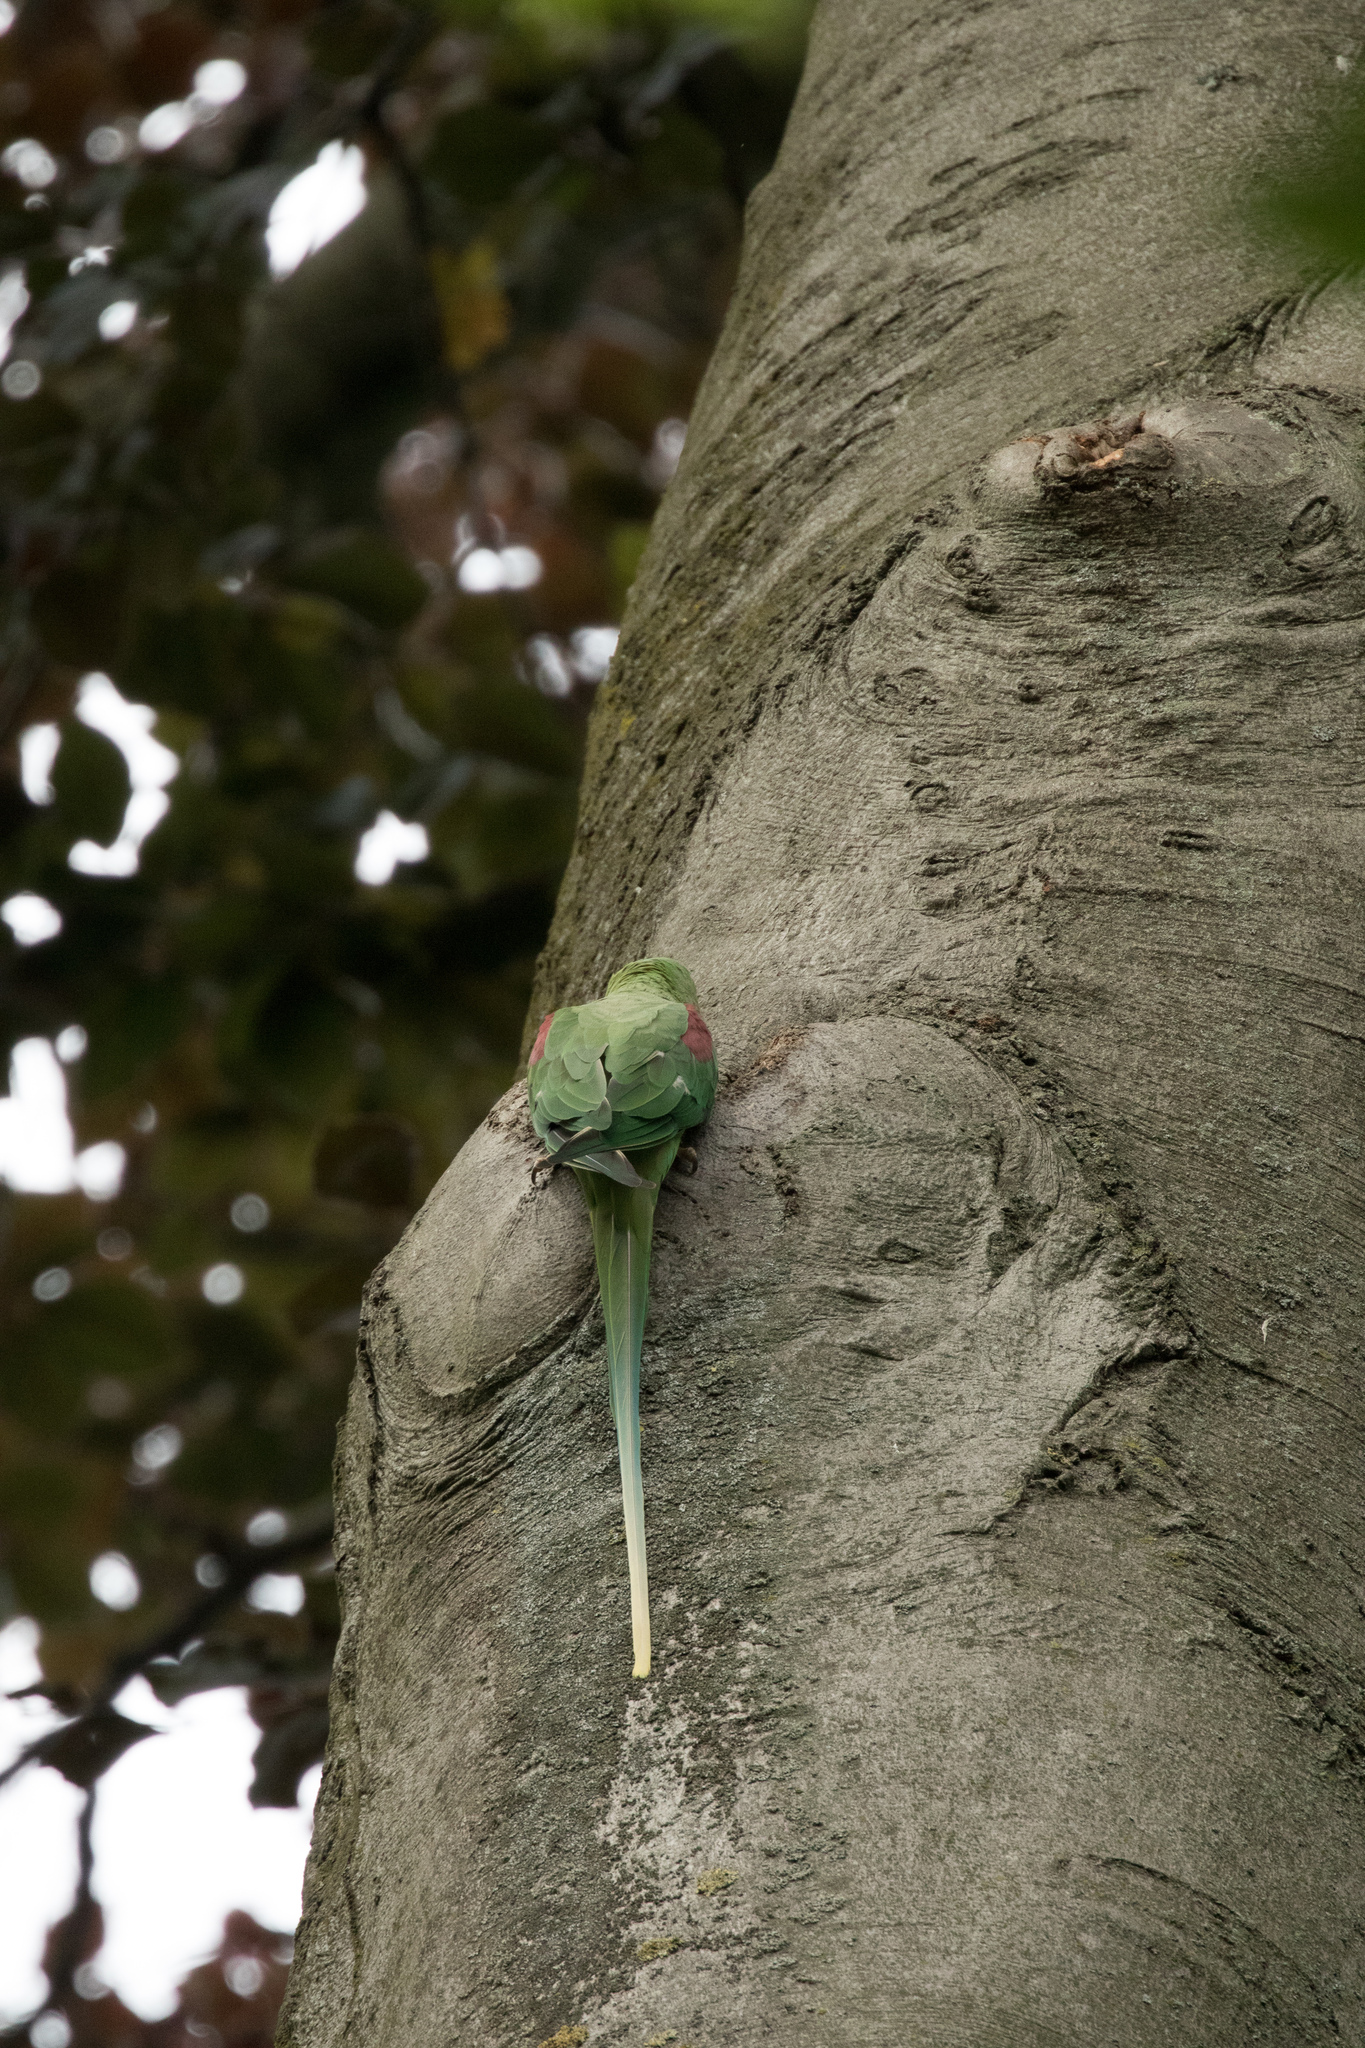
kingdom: Animalia
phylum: Chordata
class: Aves
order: Psittaciformes
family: Psittacidae
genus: Psittacula
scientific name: Psittacula eupatria
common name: Alexandrine parakeet
